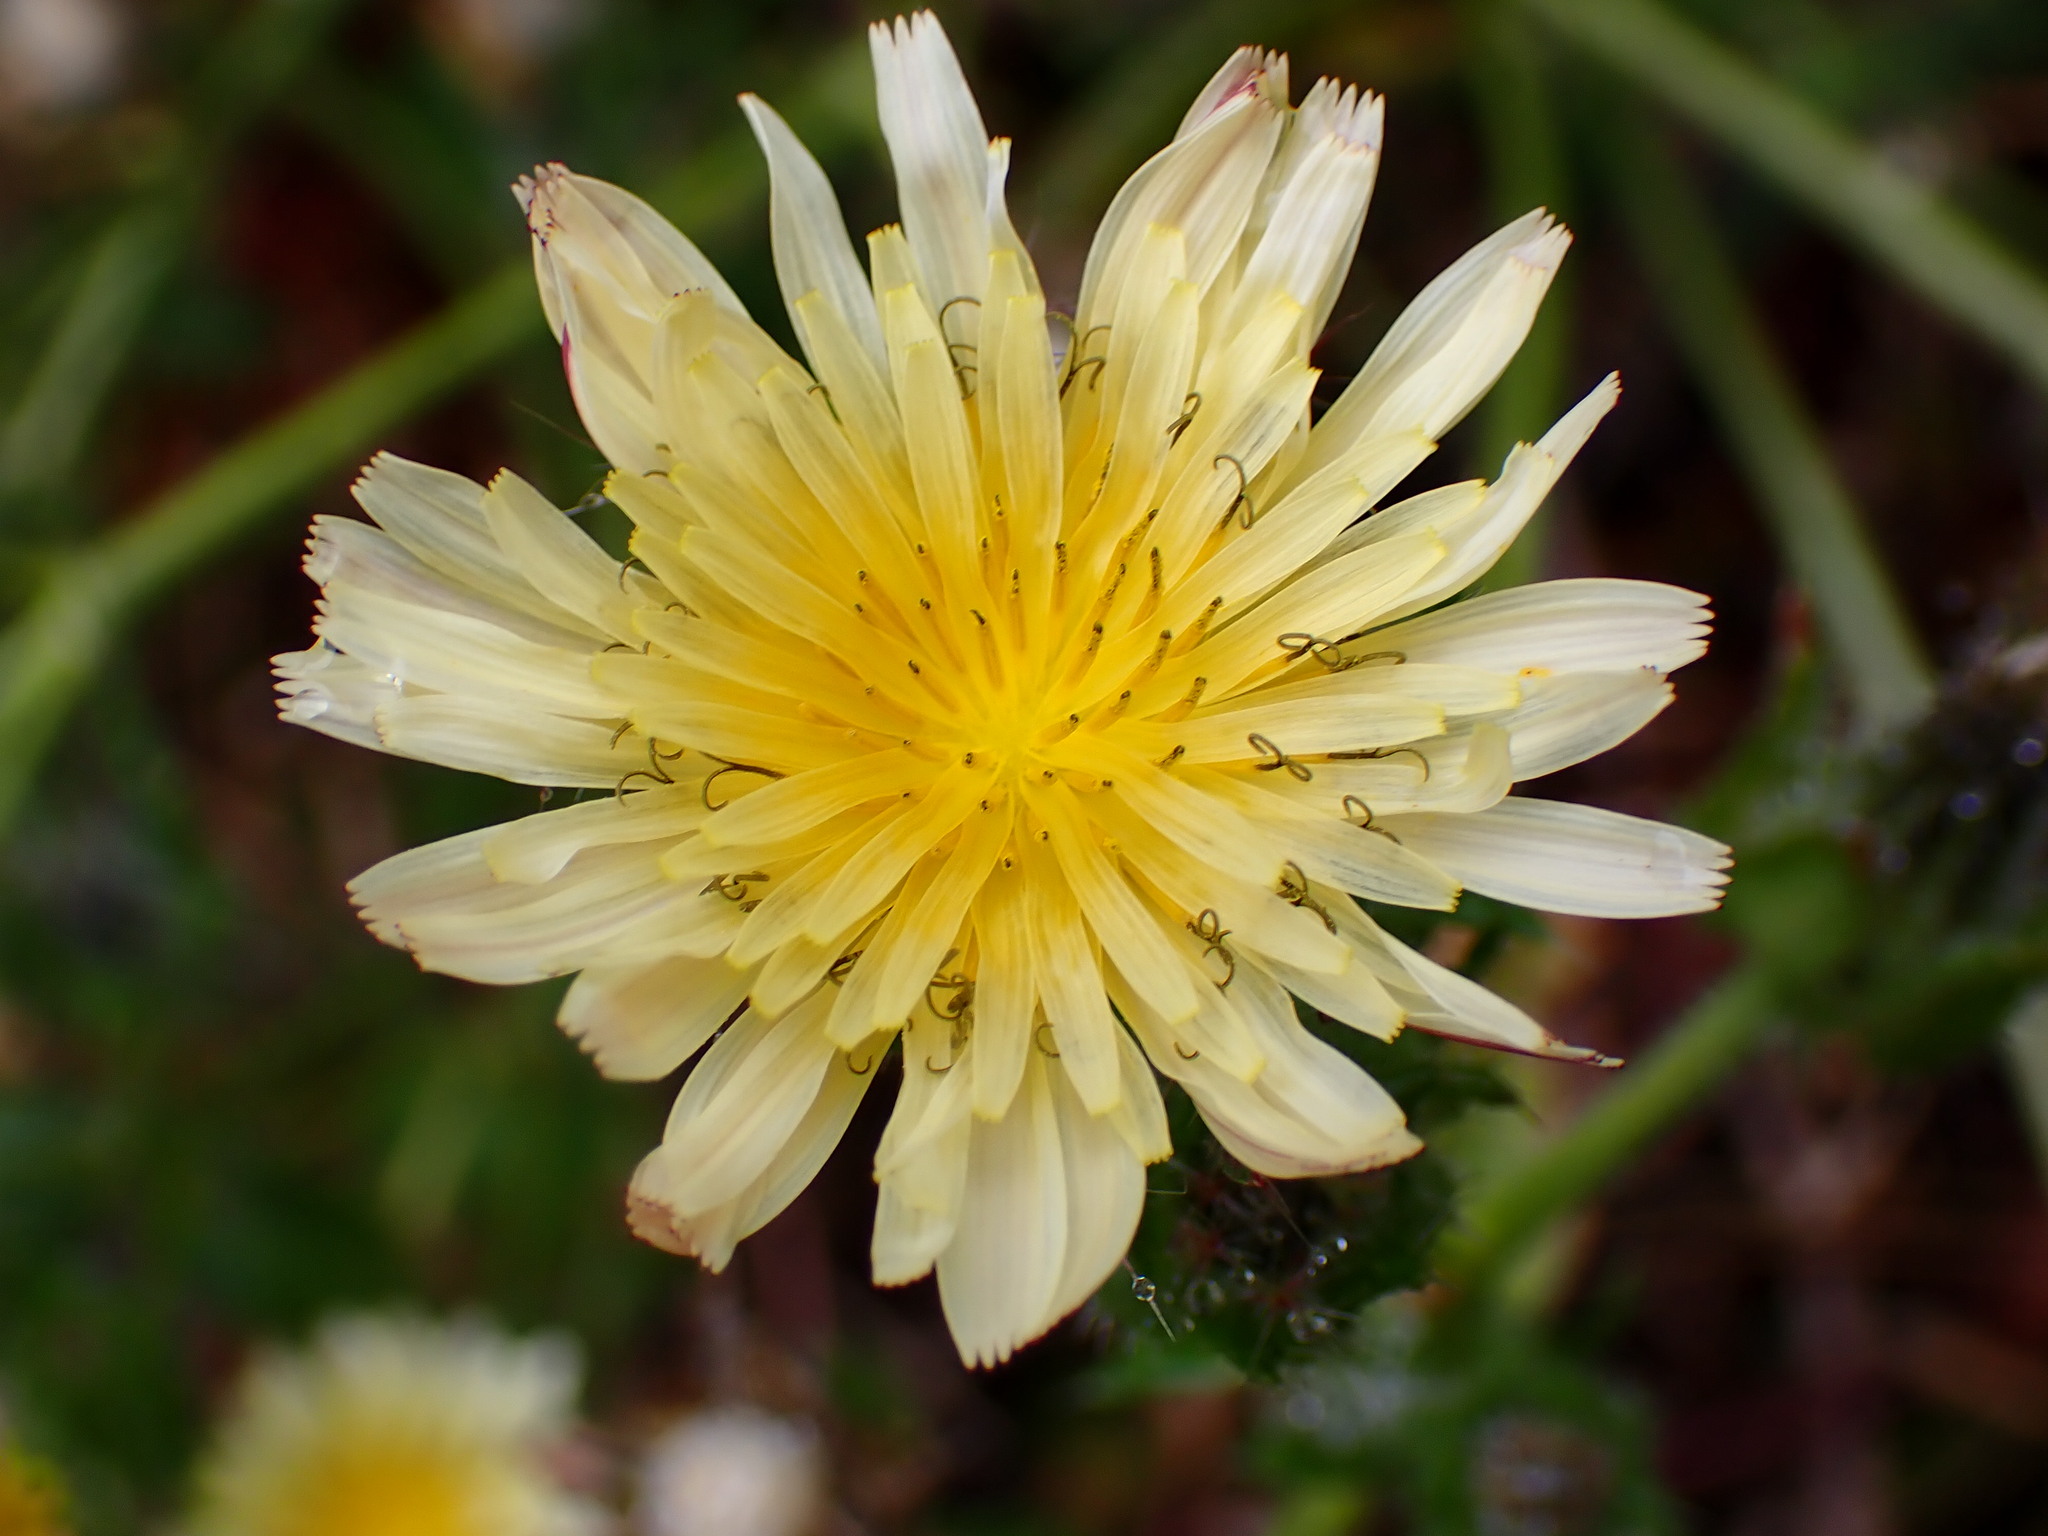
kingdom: Plantae
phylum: Tracheophyta
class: Magnoliopsida
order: Asterales
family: Asteraceae
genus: Helminthotheca
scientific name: Helminthotheca echioides
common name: Ox-tongue
